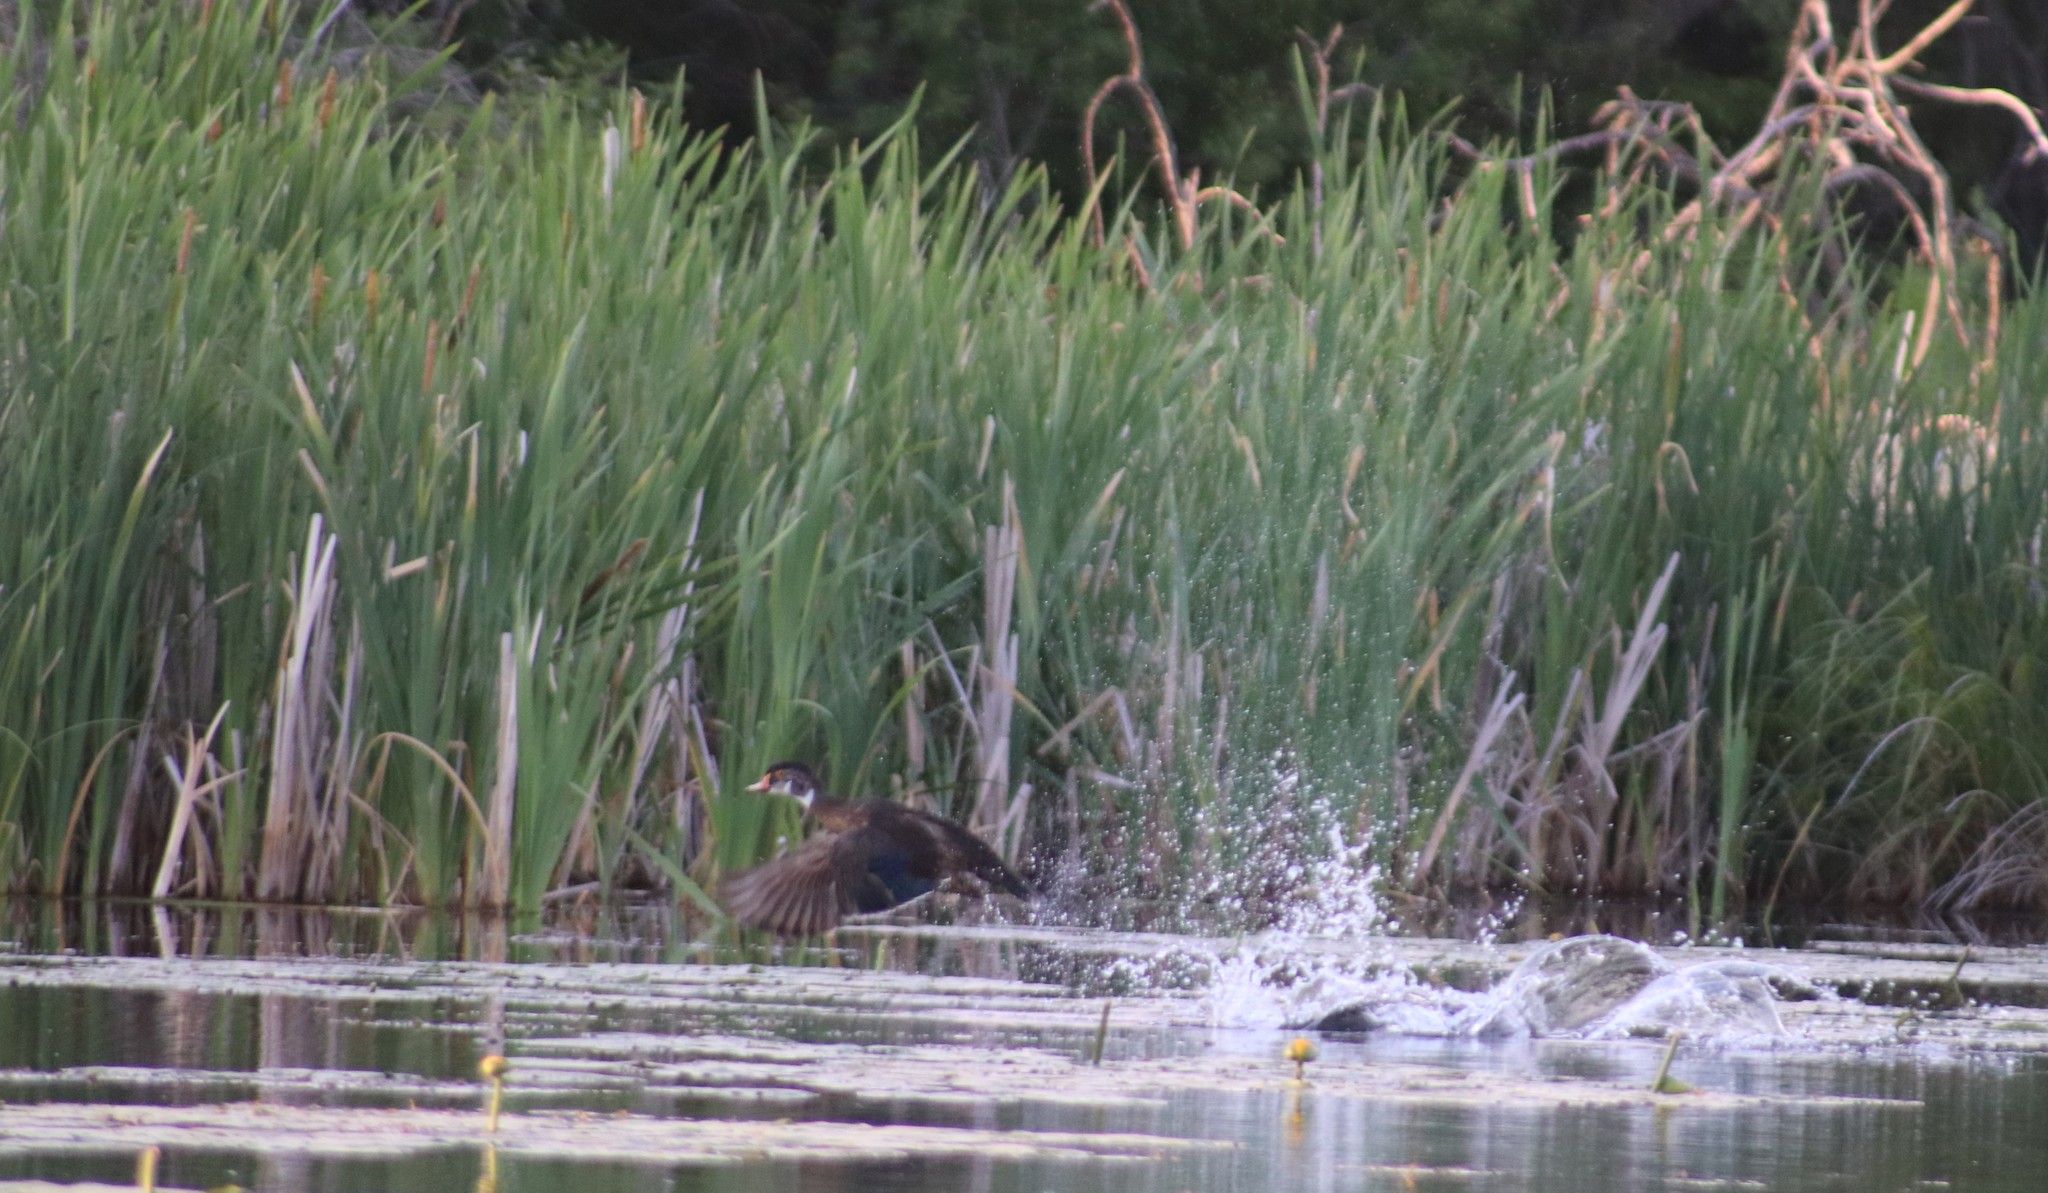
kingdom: Animalia
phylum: Chordata
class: Aves
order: Anseriformes
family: Anatidae
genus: Aix
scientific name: Aix sponsa
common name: Wood duck
